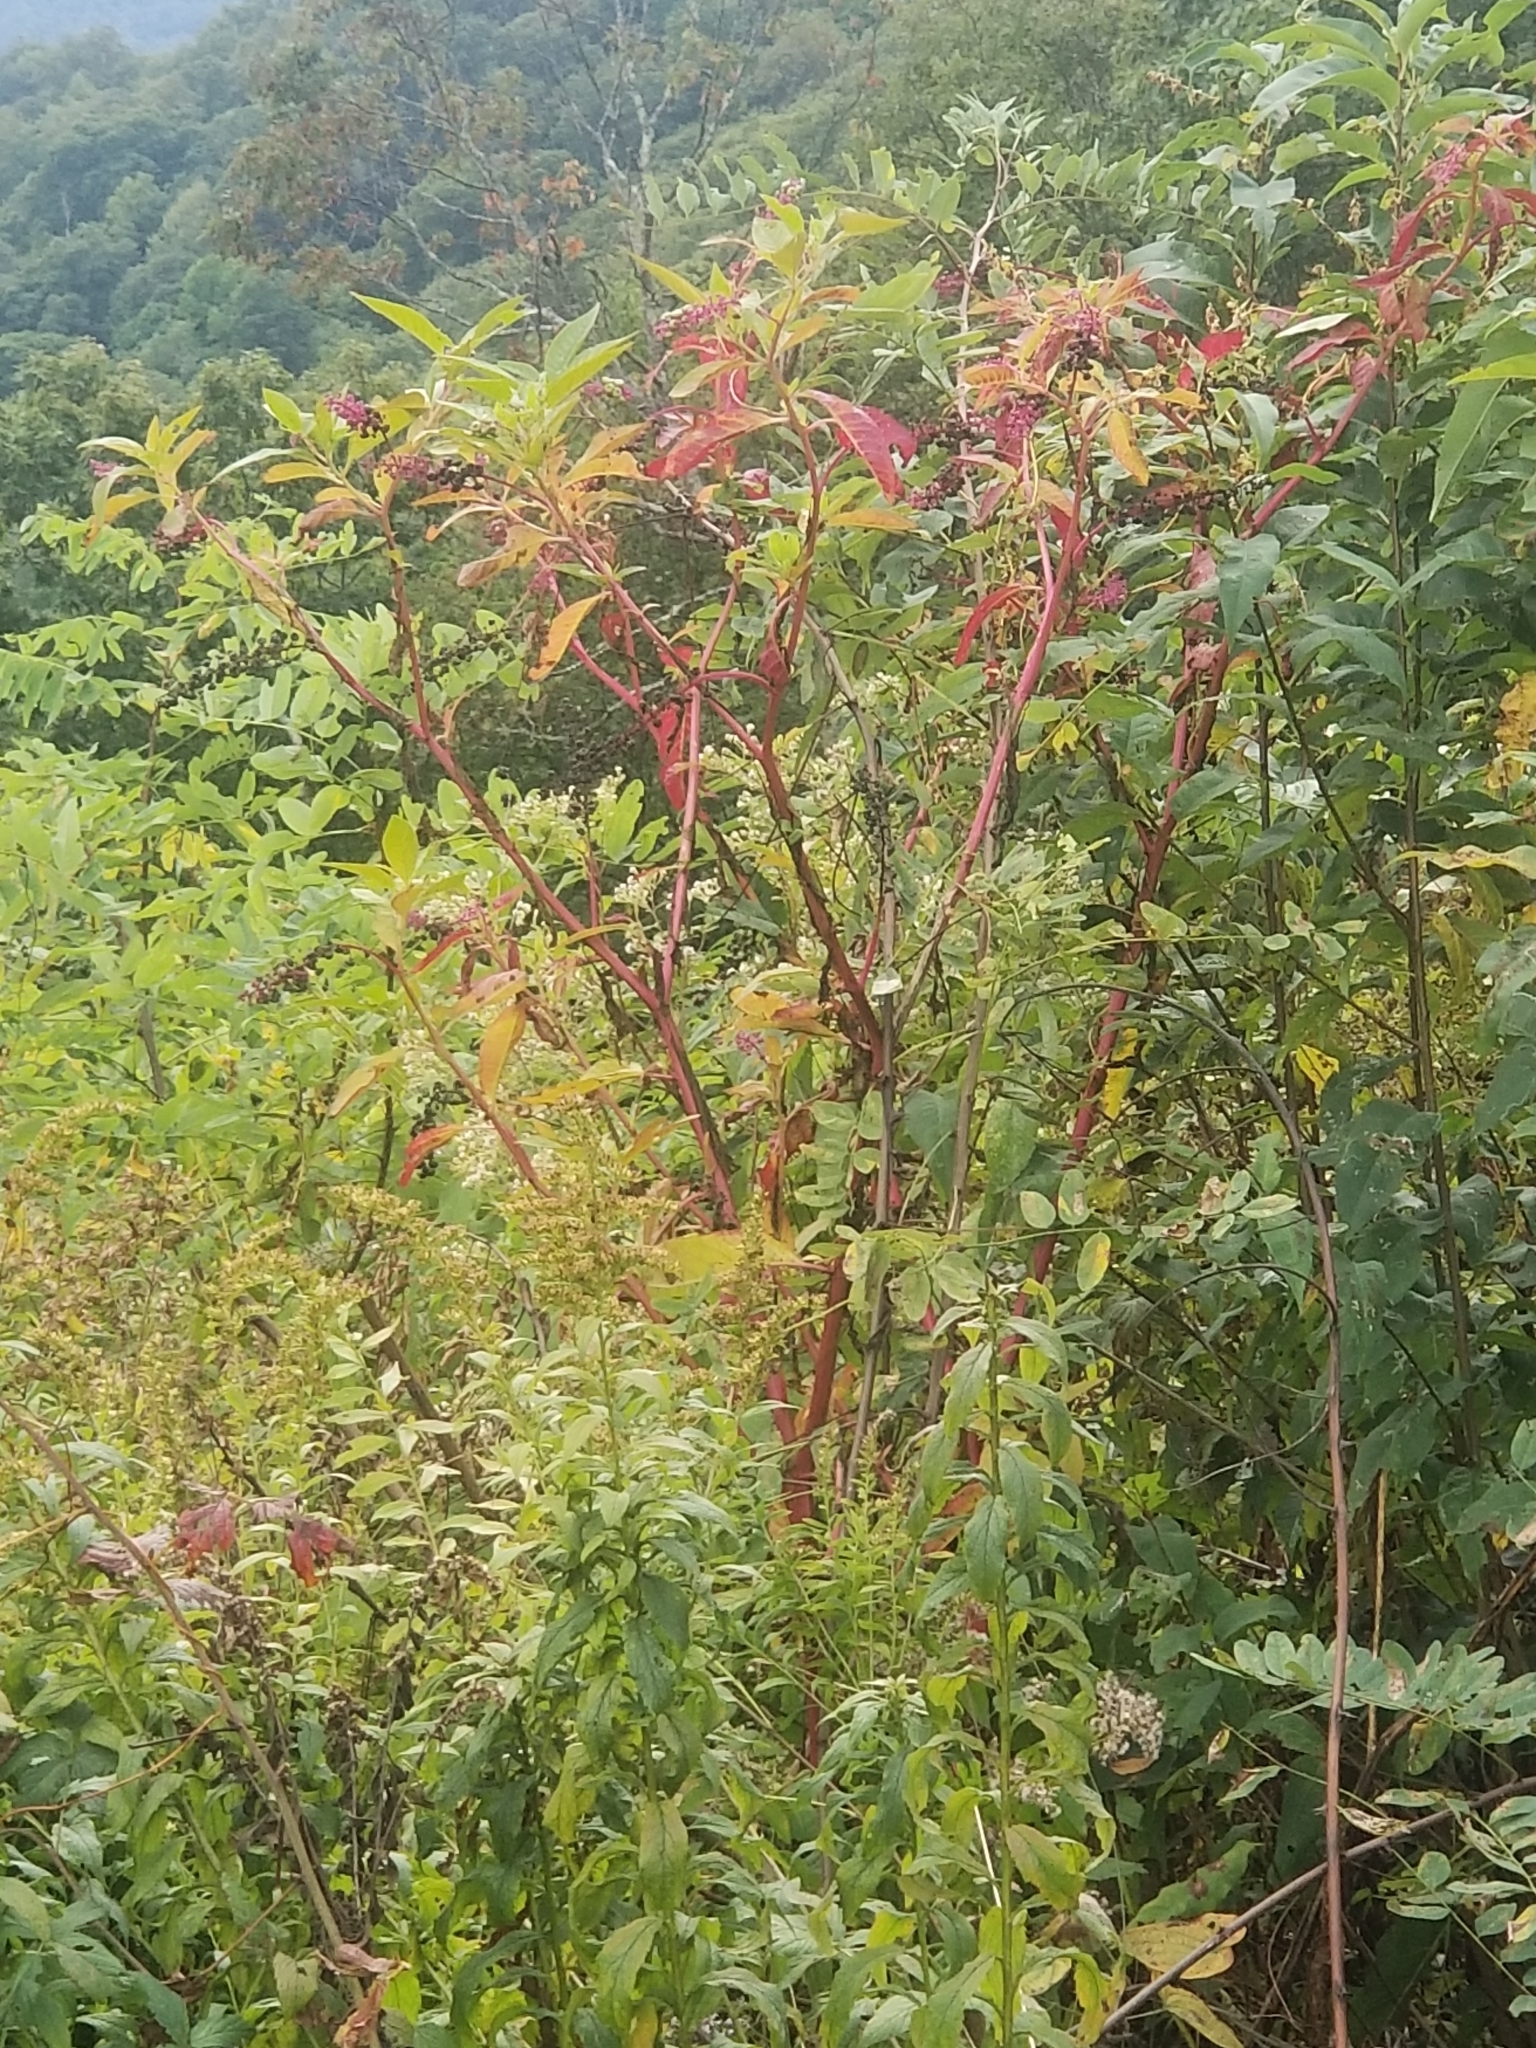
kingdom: Plantae
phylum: Tracheophyta
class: Magnoliopsida
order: Caryophyllales
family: Phytolaccaceae
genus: Phytolacca
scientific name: Phytolacca americana
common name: American pokeweed
